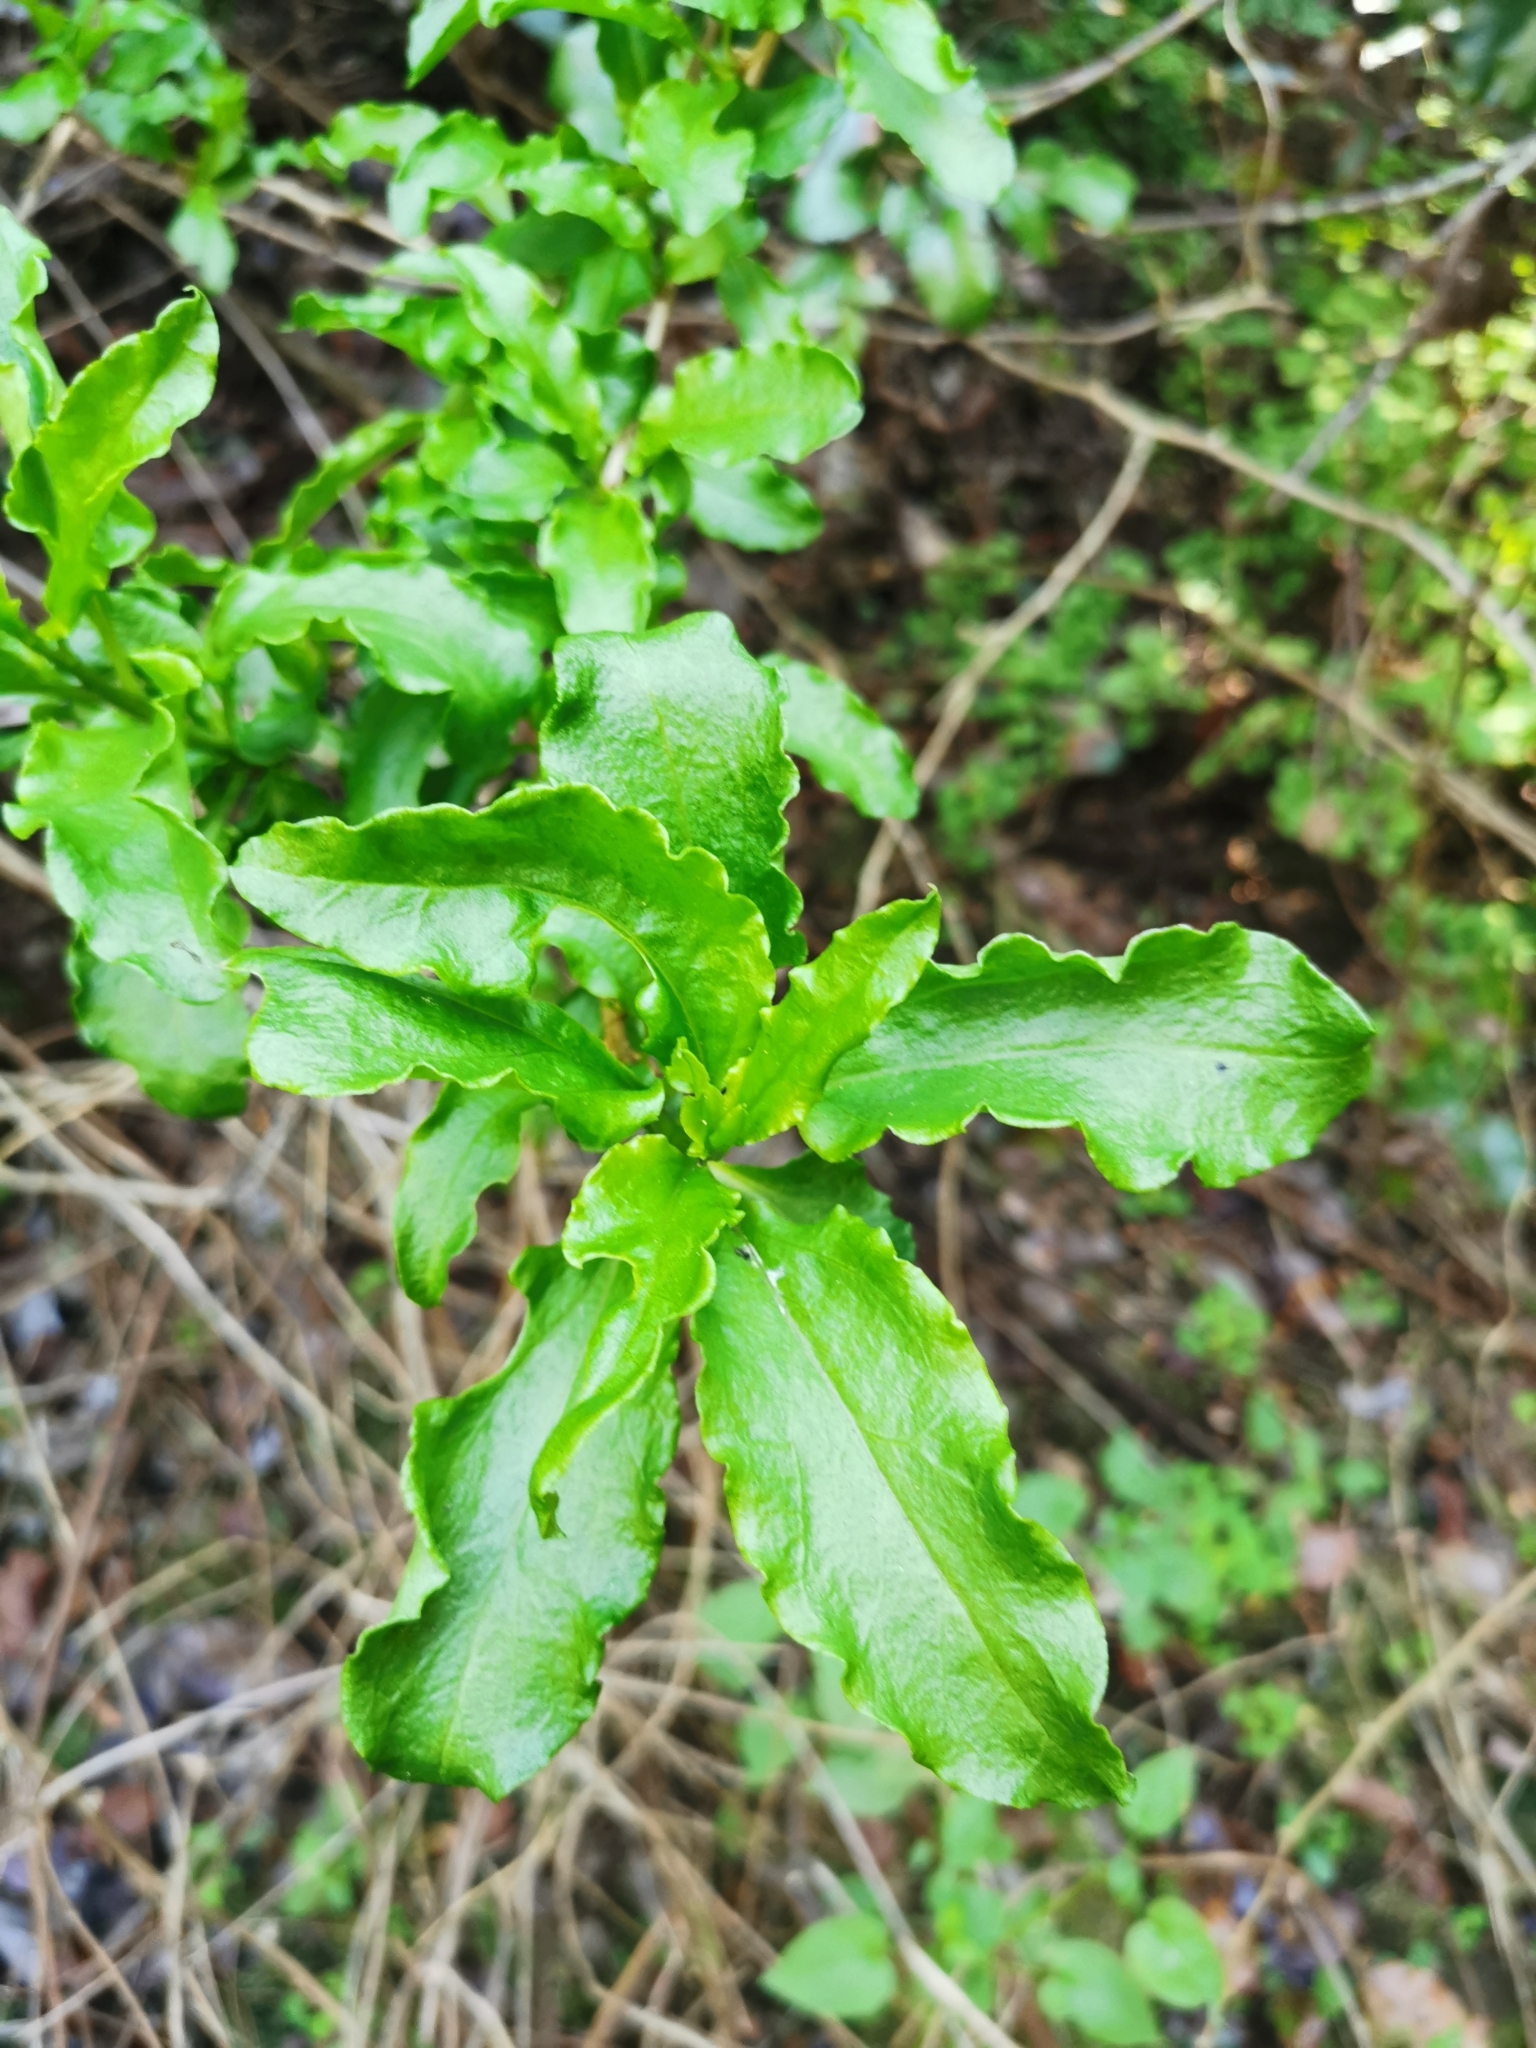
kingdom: Plantae
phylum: Tracheophyta
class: Magnoliopsida
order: Caryophyllales
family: Phytolaccaceae
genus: Anisomeria
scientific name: Anisomeria littoralis
